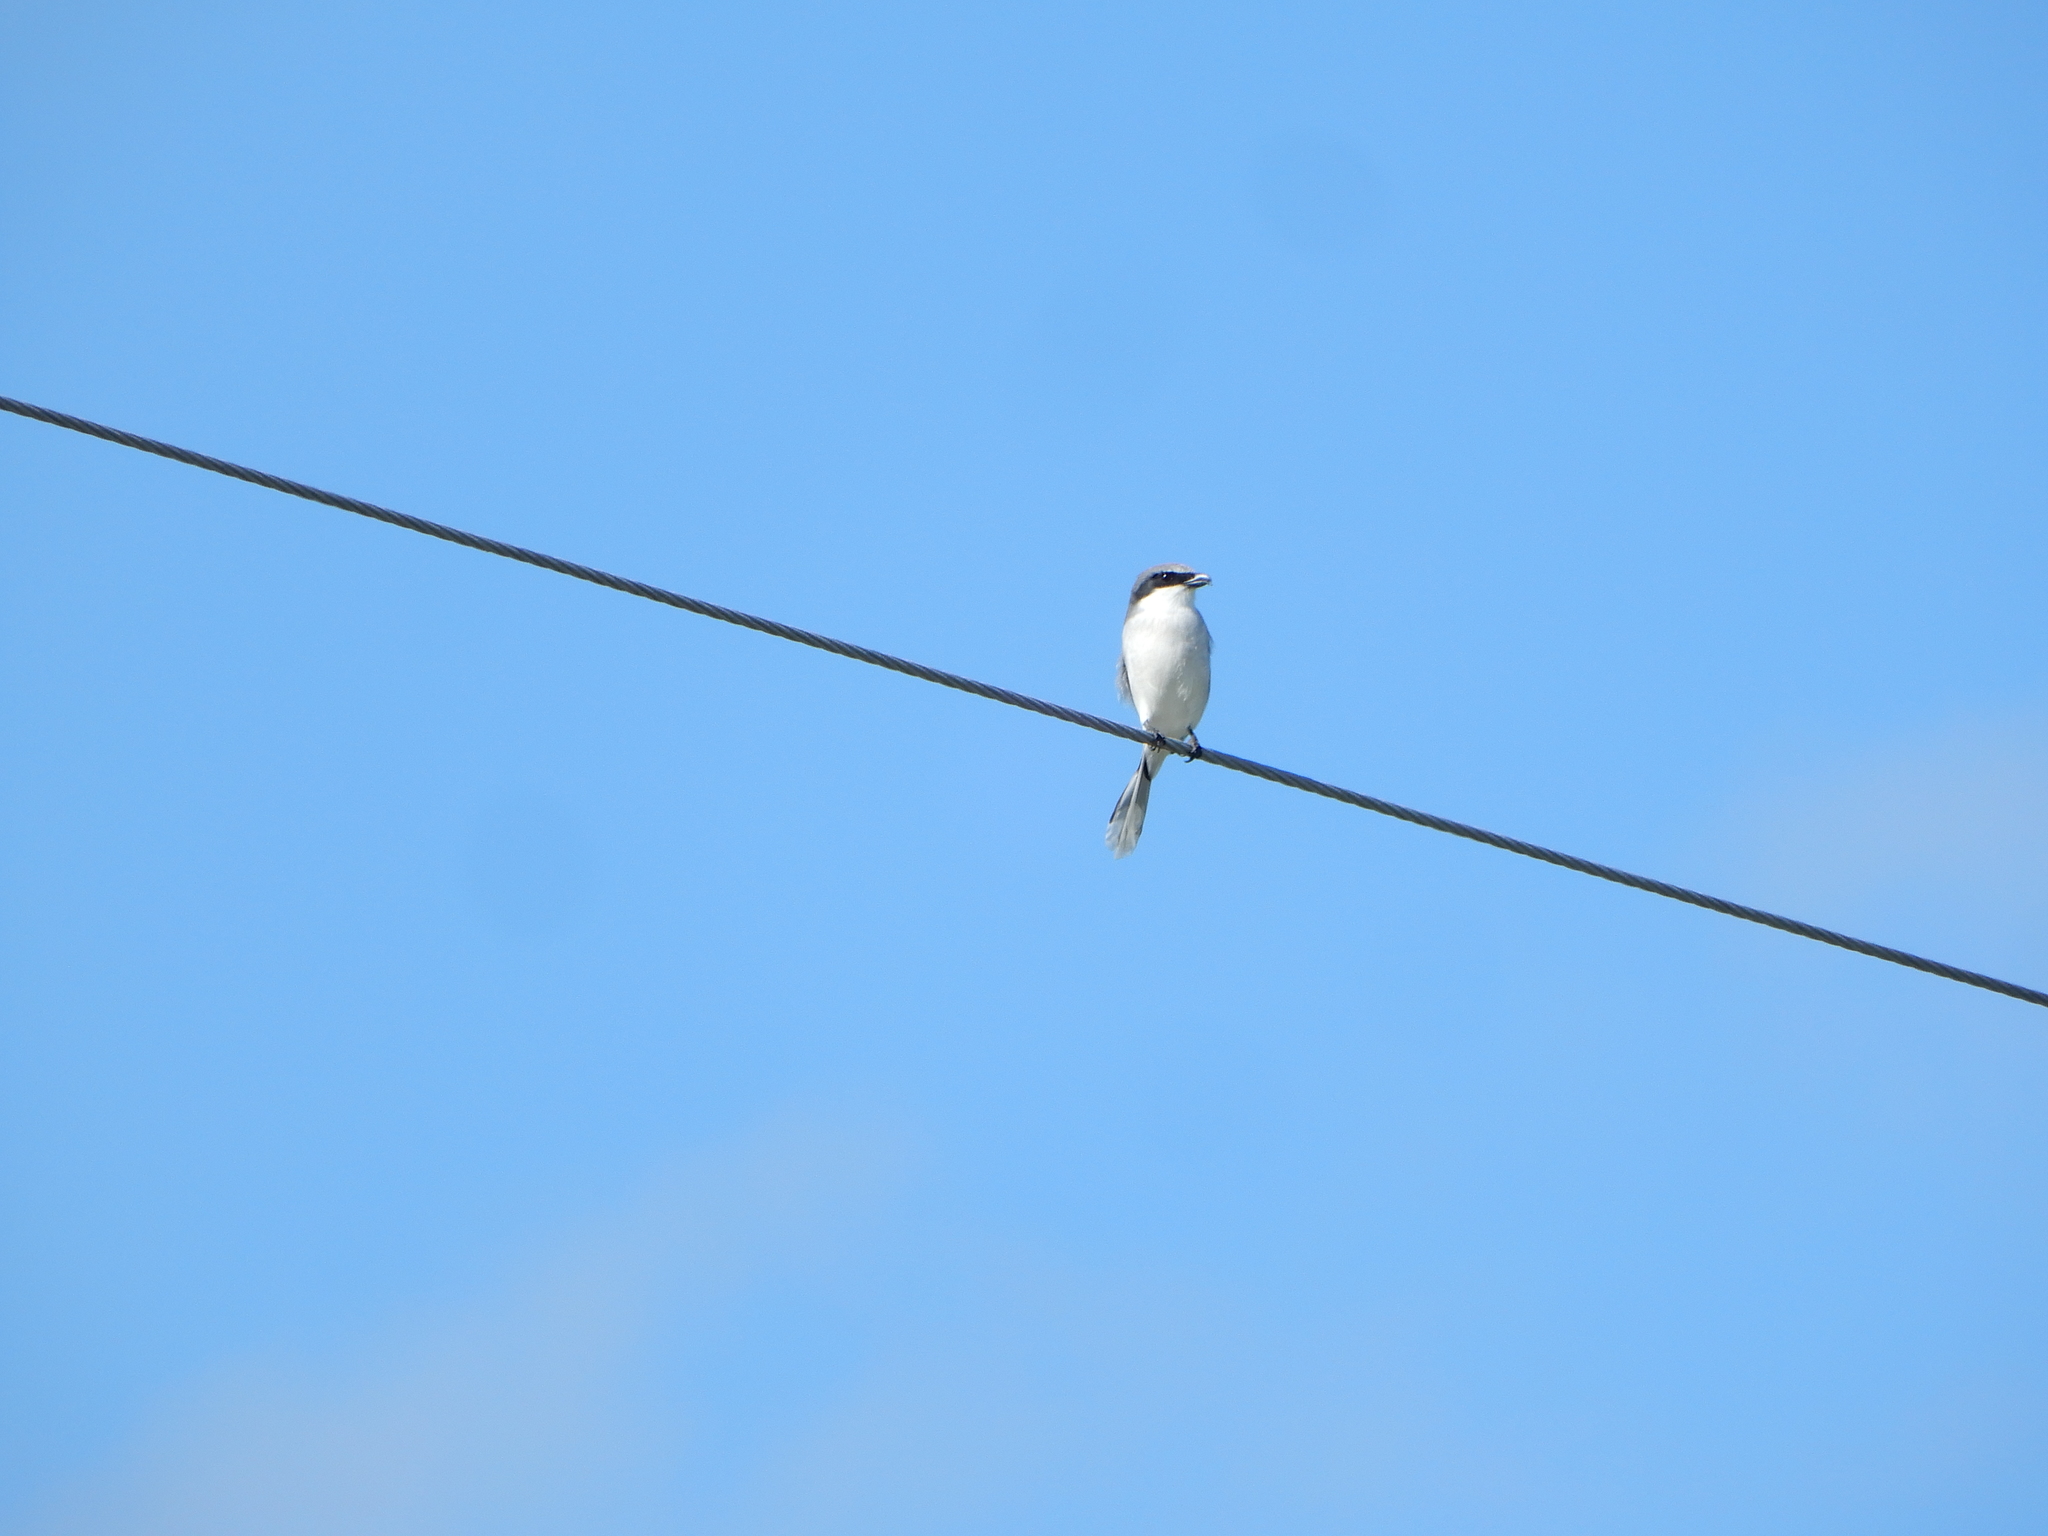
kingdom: Animalia
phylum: Chordata
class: Aves
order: Passeriformes
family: Laniidae
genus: Lanius
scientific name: Lanius ludovicianus
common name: Loggerhead shrike
